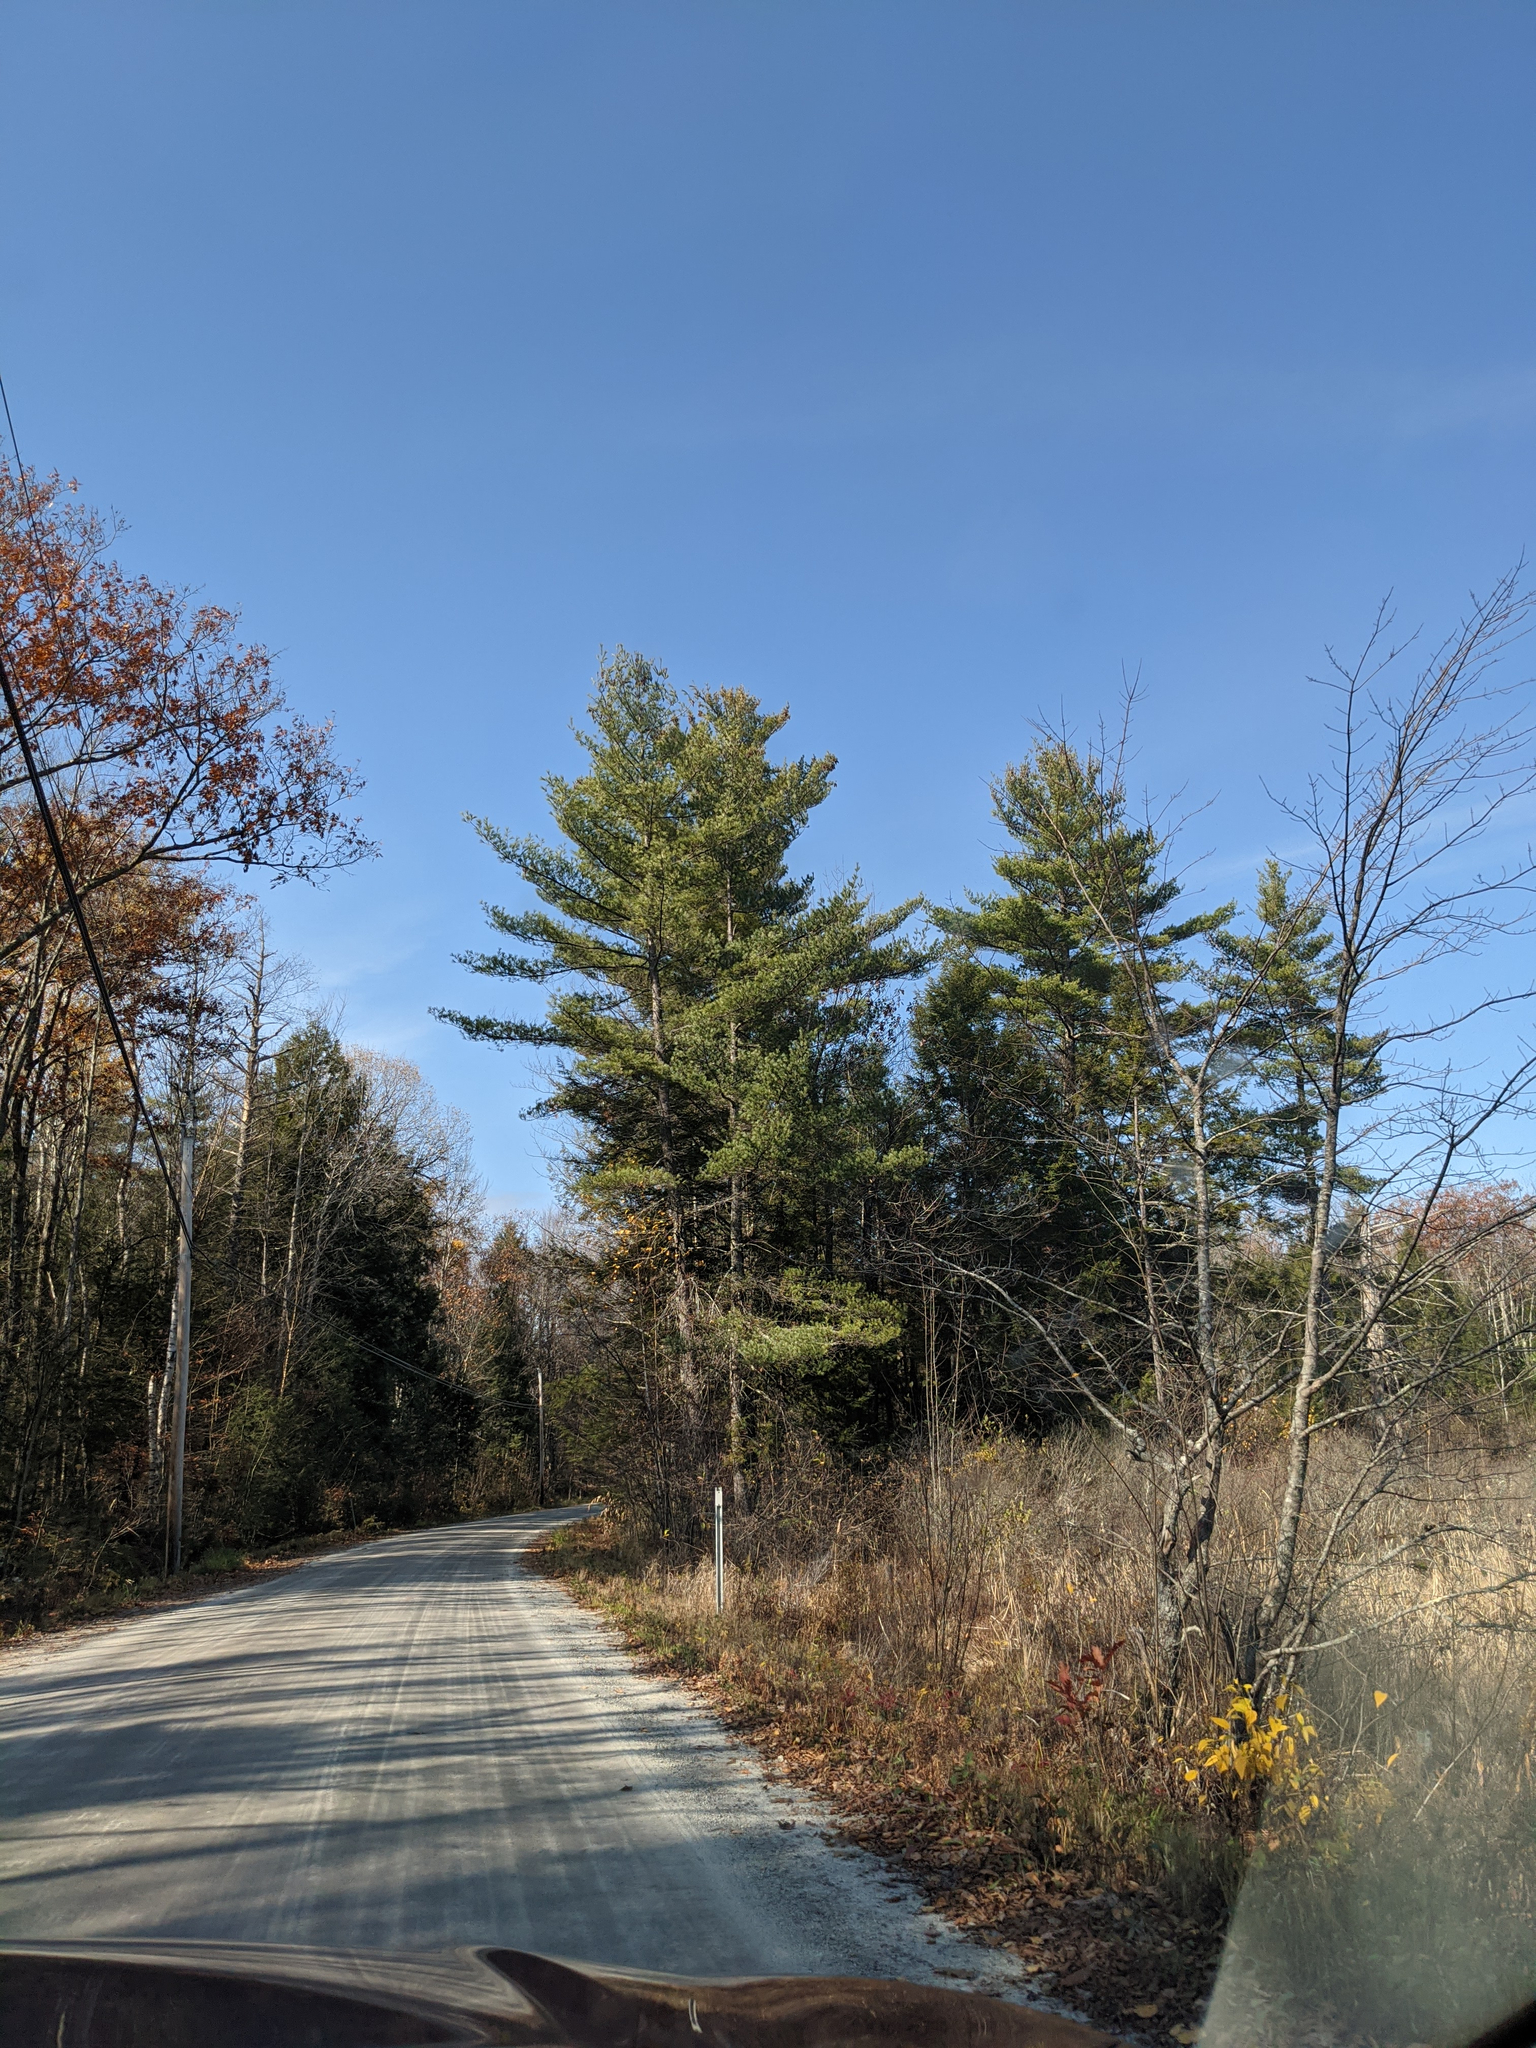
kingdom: Plantae
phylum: Tracheophyta
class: Pinopsida
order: Pinales
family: Pinaceae
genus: Pinus
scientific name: Pinus strobus
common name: Weymouth pine
